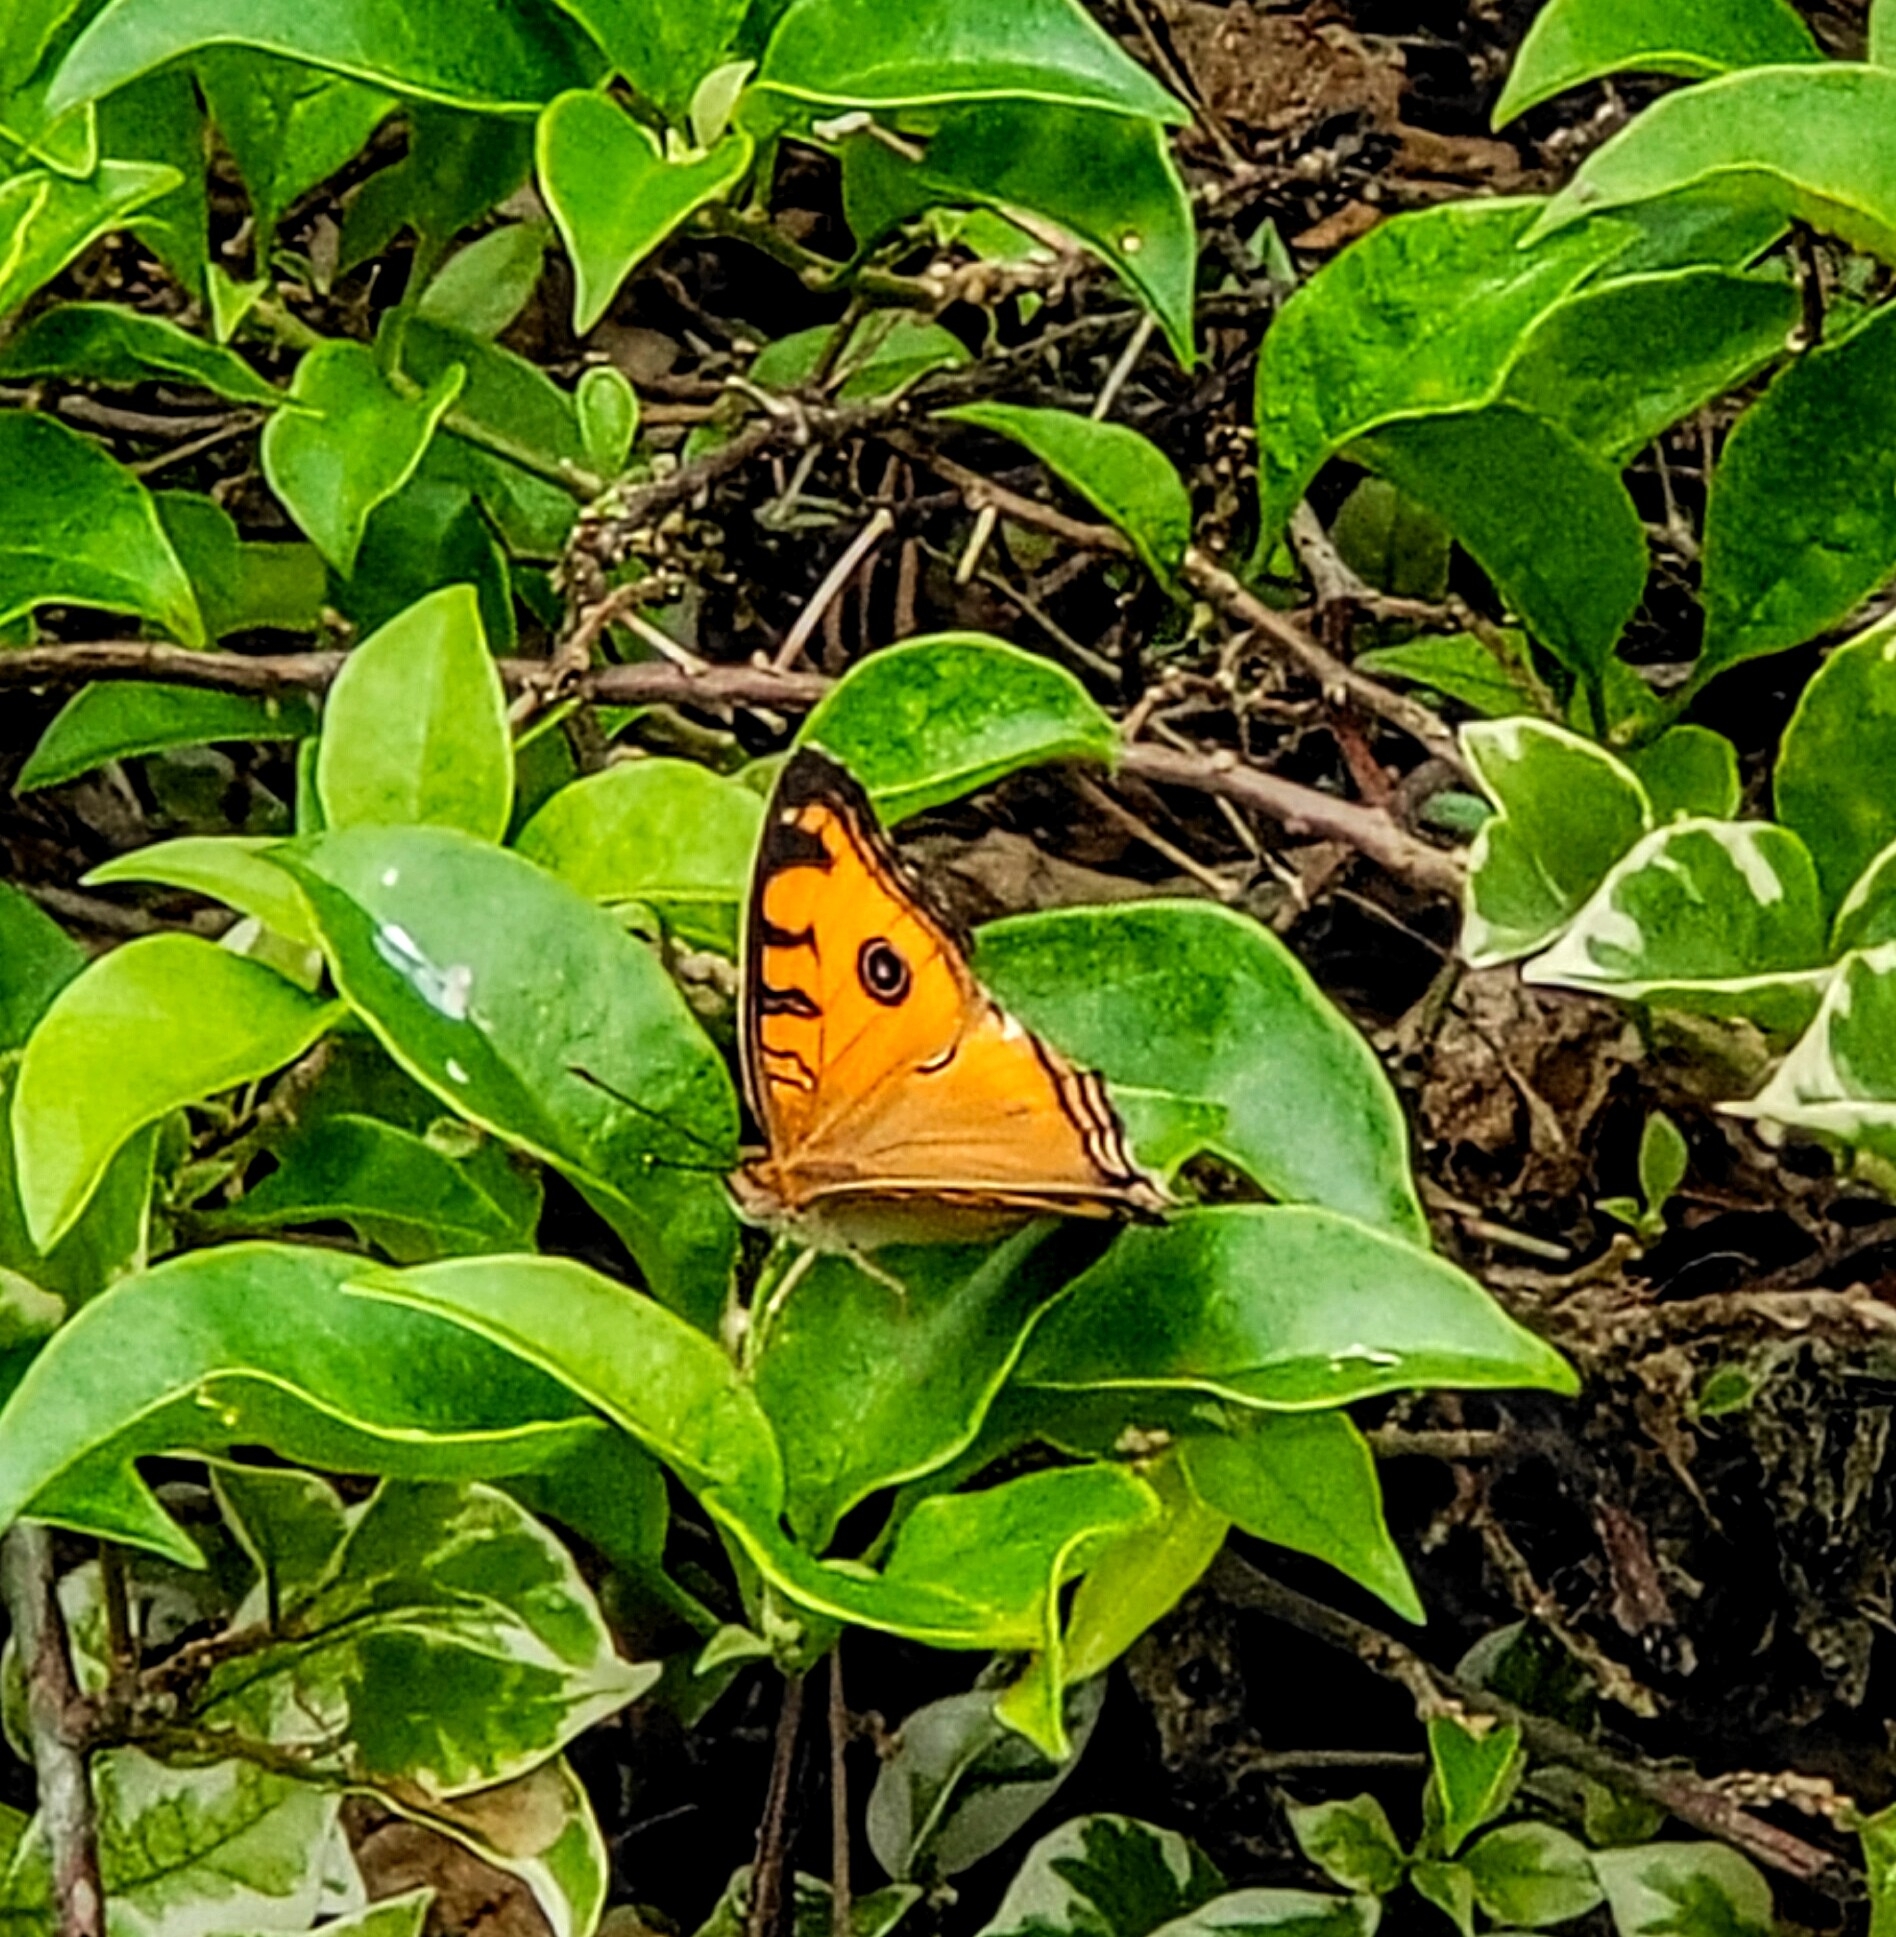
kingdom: Animalia
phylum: Arthropoda
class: Insecta
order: Lepidoptera
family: Nymphalidae
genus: Junonia
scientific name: Junonia almana
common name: Peacock pansy
